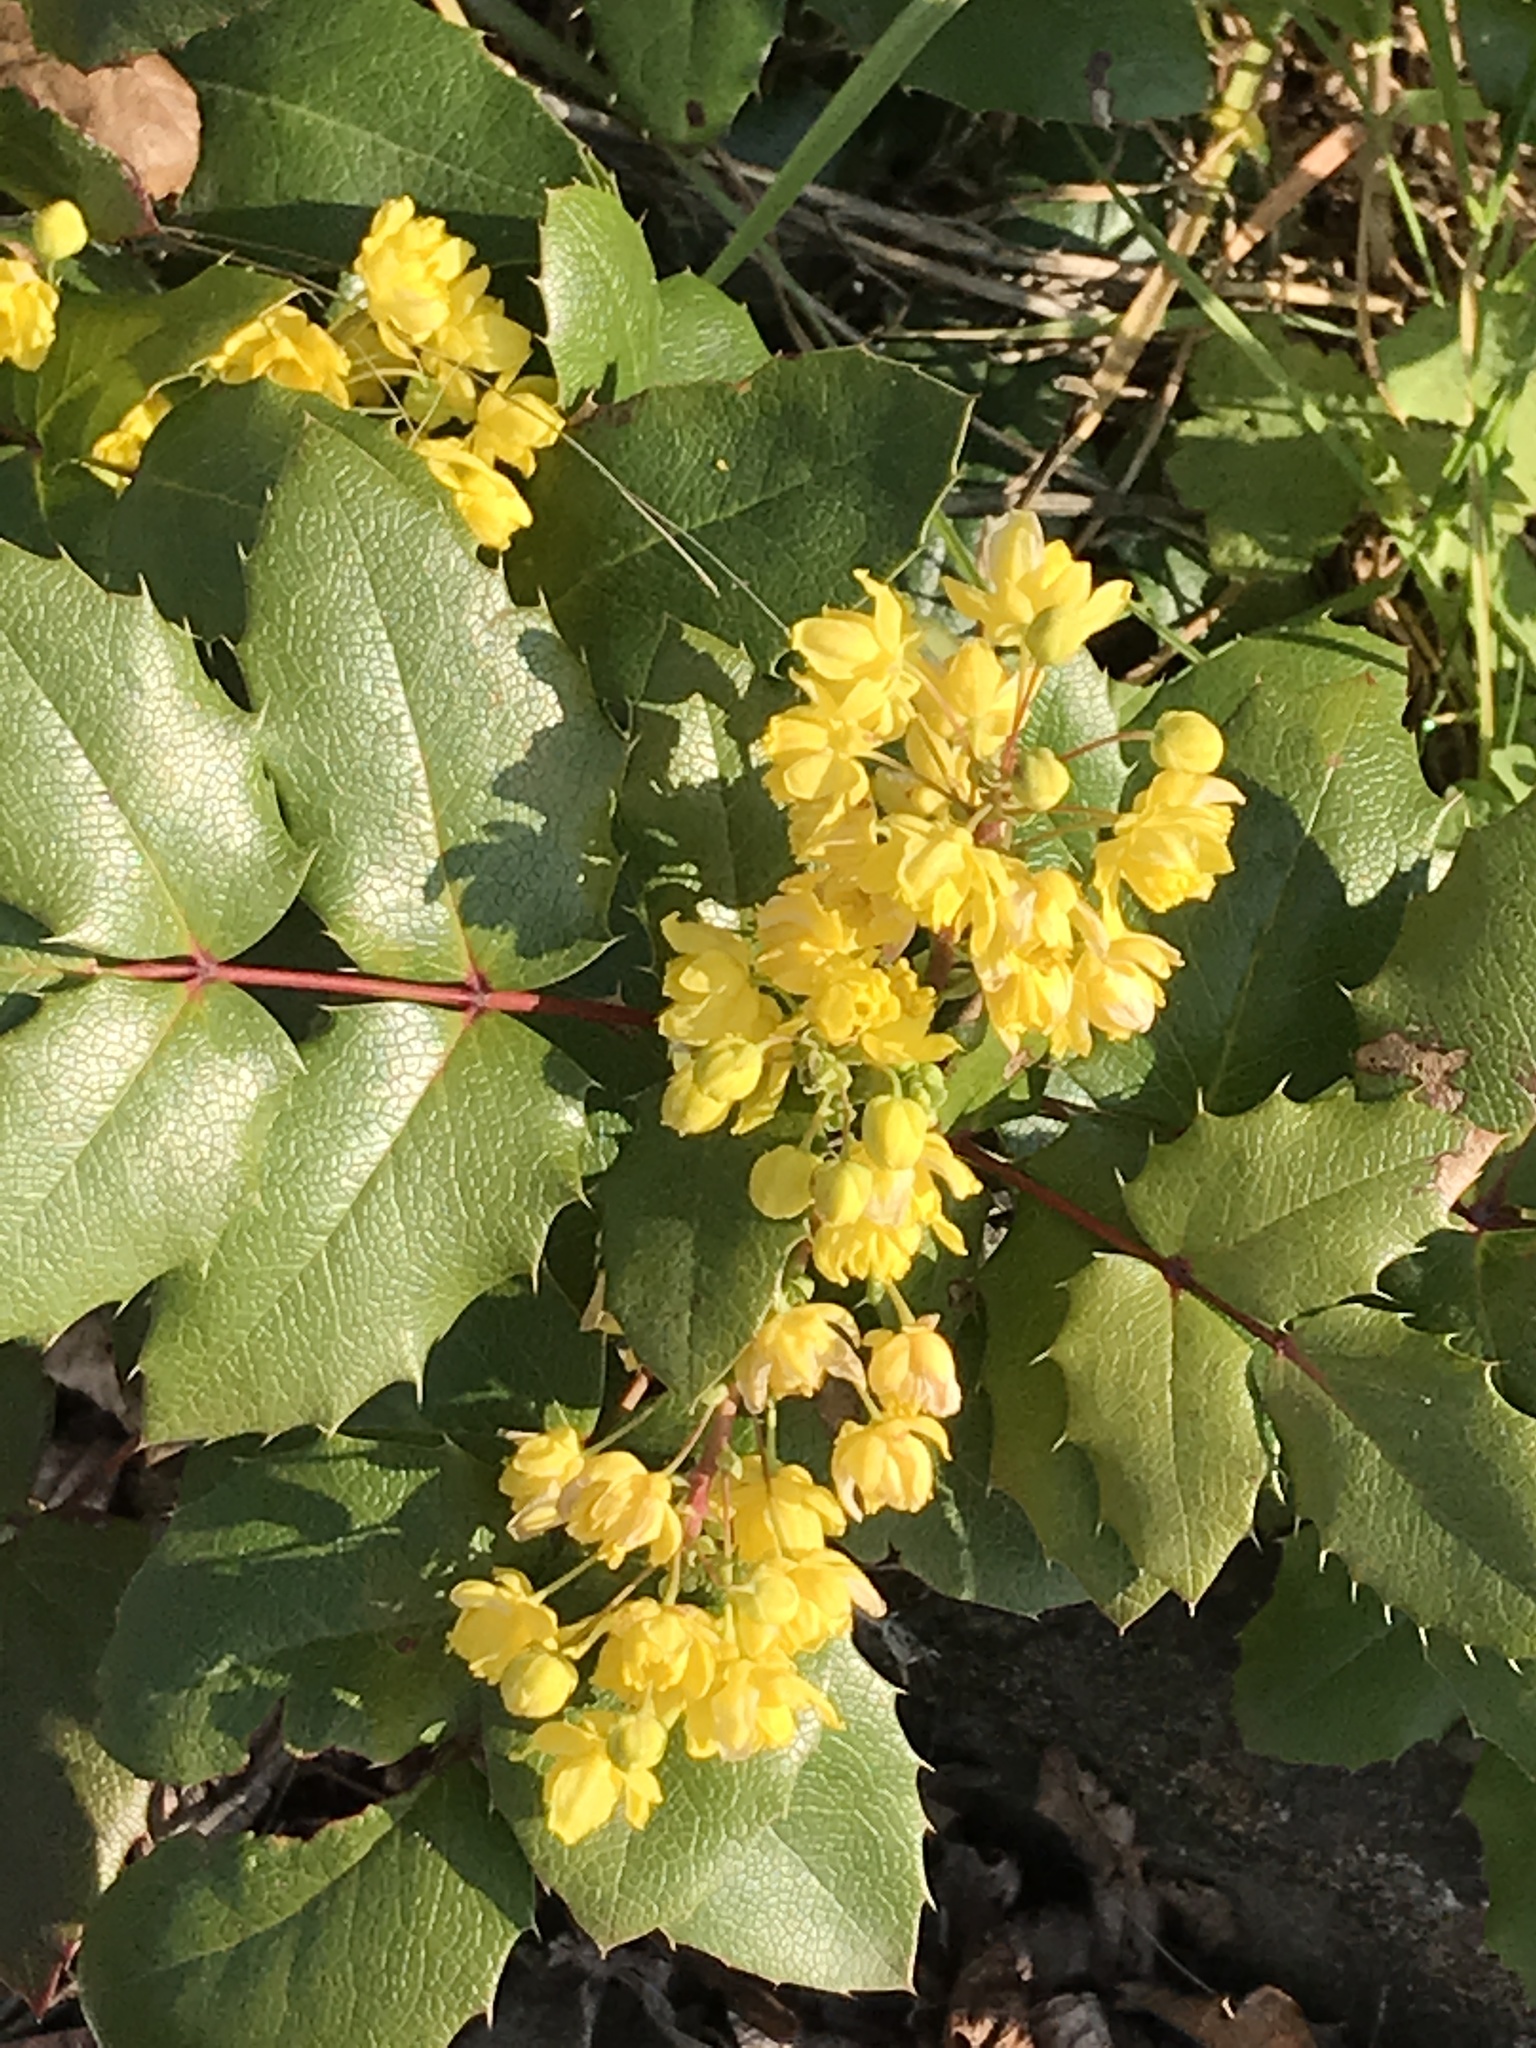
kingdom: Plantae
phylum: Tracheophyta
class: Magnoliopsida
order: Ranunculales
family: Berberidaceae
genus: Mahonia
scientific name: Mahonia aquifolium
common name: Oregon-grape
